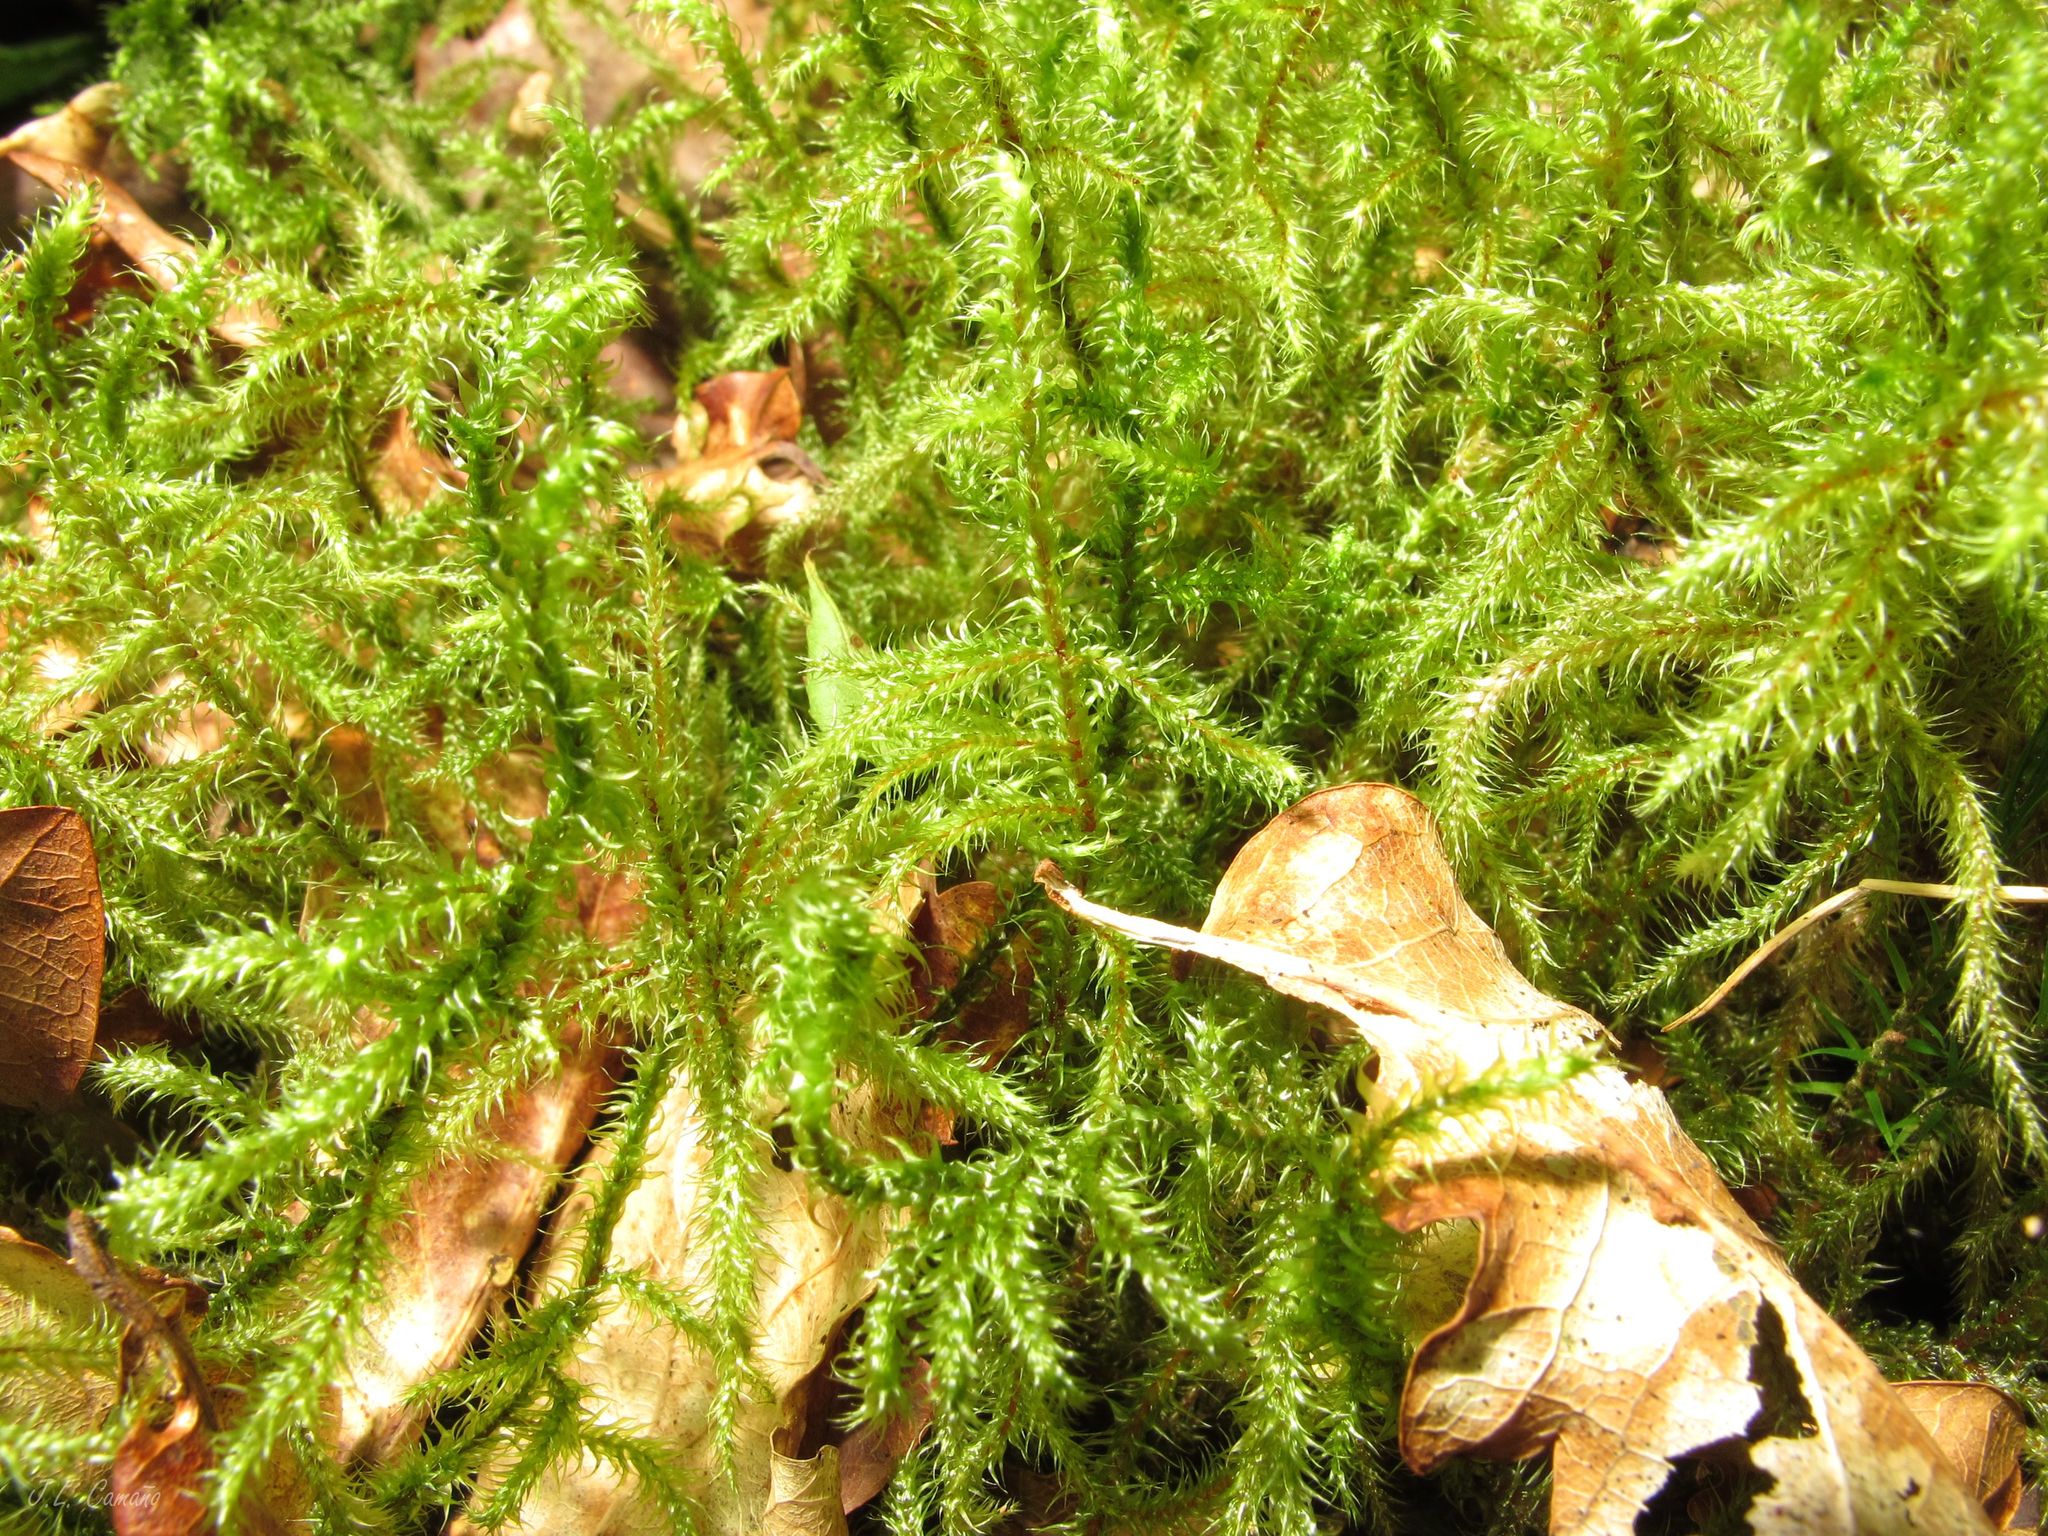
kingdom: Plantae
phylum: Bryophyta
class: Bryopsida
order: Hypnales
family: Hylocomiaceae
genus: Rhytidiadelphus
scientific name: Rhytidiadelphus loreus
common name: Lanky moss
